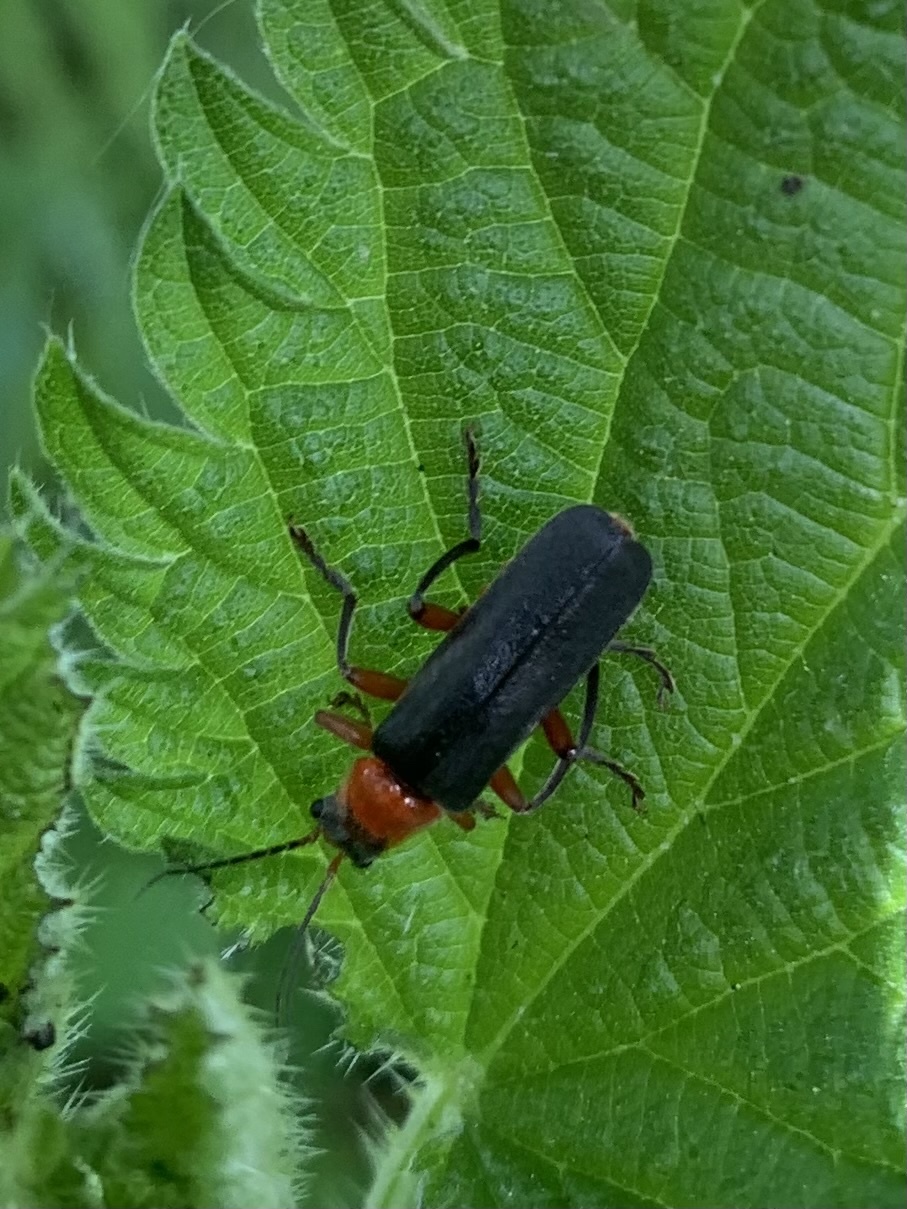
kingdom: Animalia
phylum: Arthropoda
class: Insecta
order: Coleoptera
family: Cantharidae
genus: Cantharis
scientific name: Cantharis pellucida
